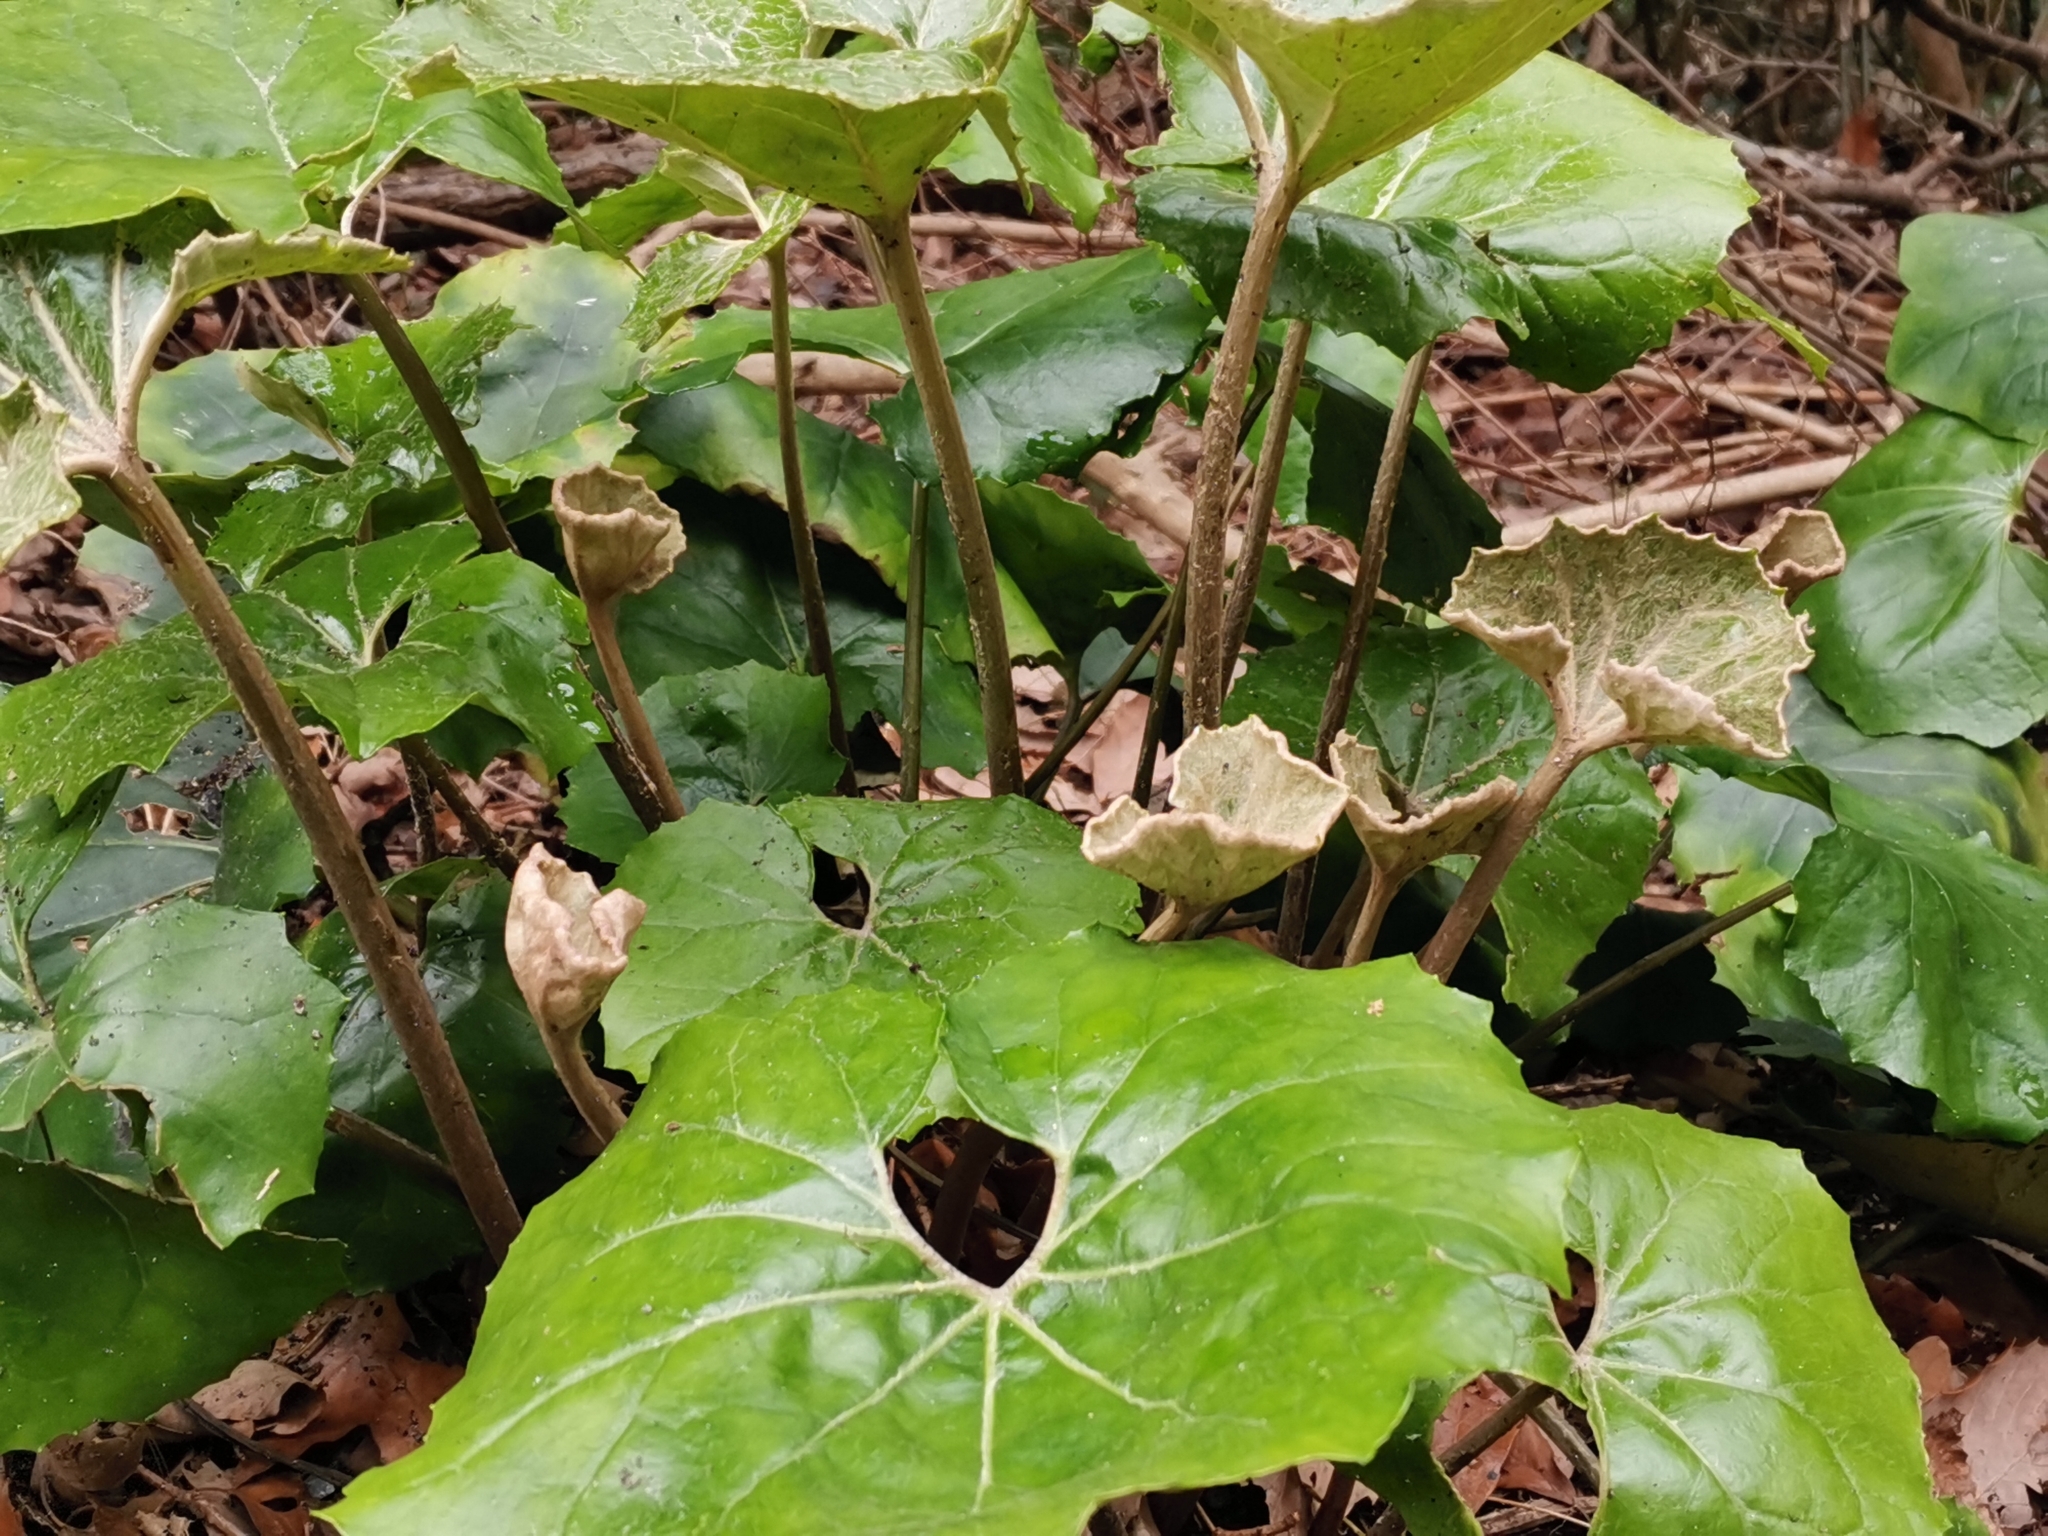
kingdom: Plantae
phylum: Tracheophyta
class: Magnoliopsida
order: Asterales
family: Asteraceae
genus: Farfugium
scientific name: Farfugium japonicum
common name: Leopardplant
